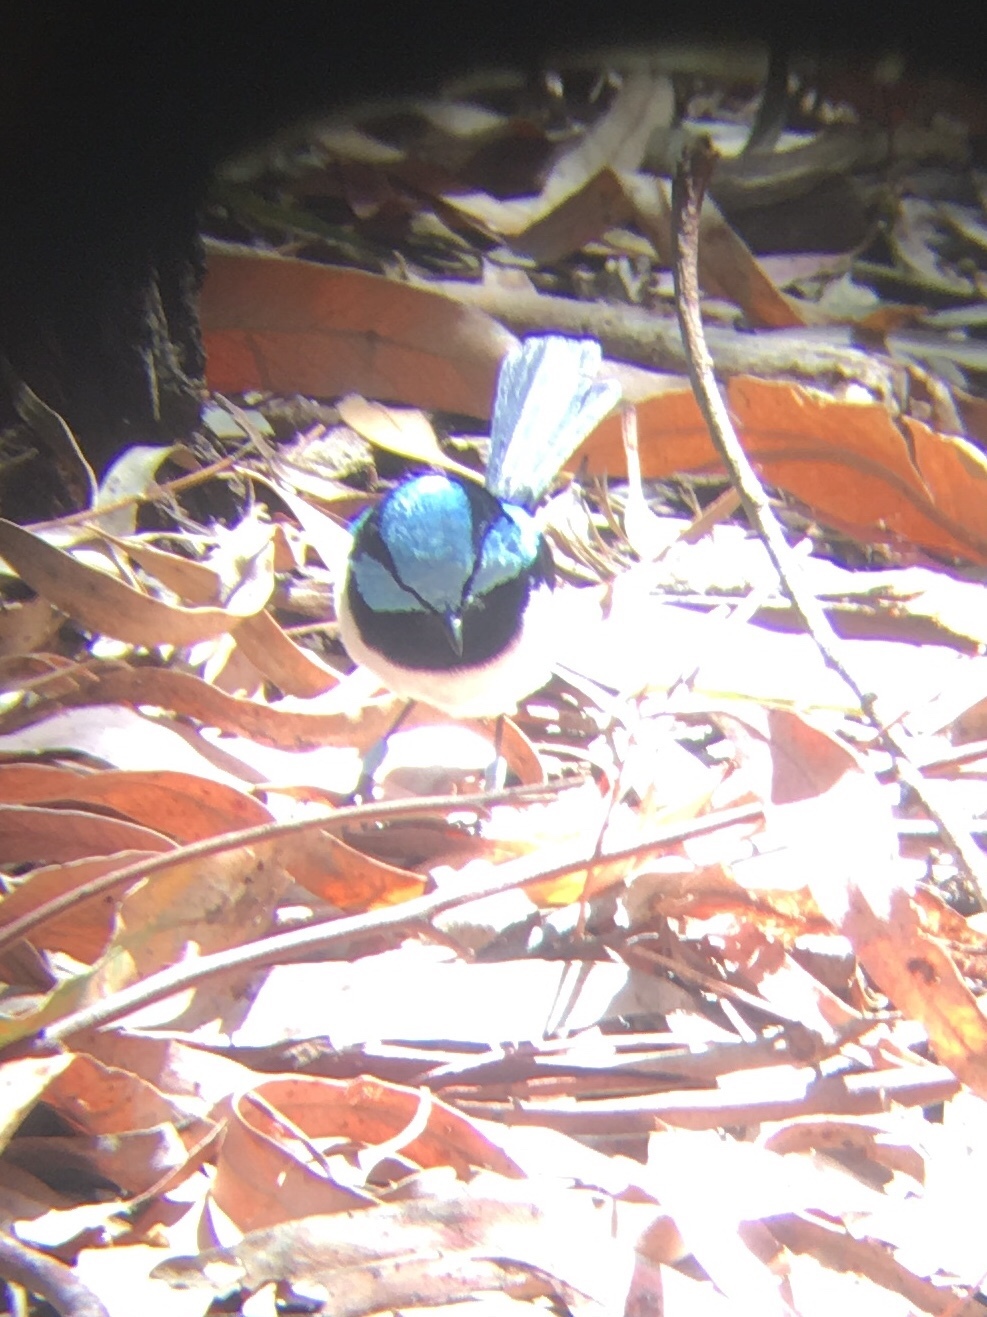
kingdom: Animalia
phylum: Chordata
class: Aves
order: Passeriformes
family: Maluridae
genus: Malurus
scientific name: Malurus cyaneus
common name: Superb fairywren
